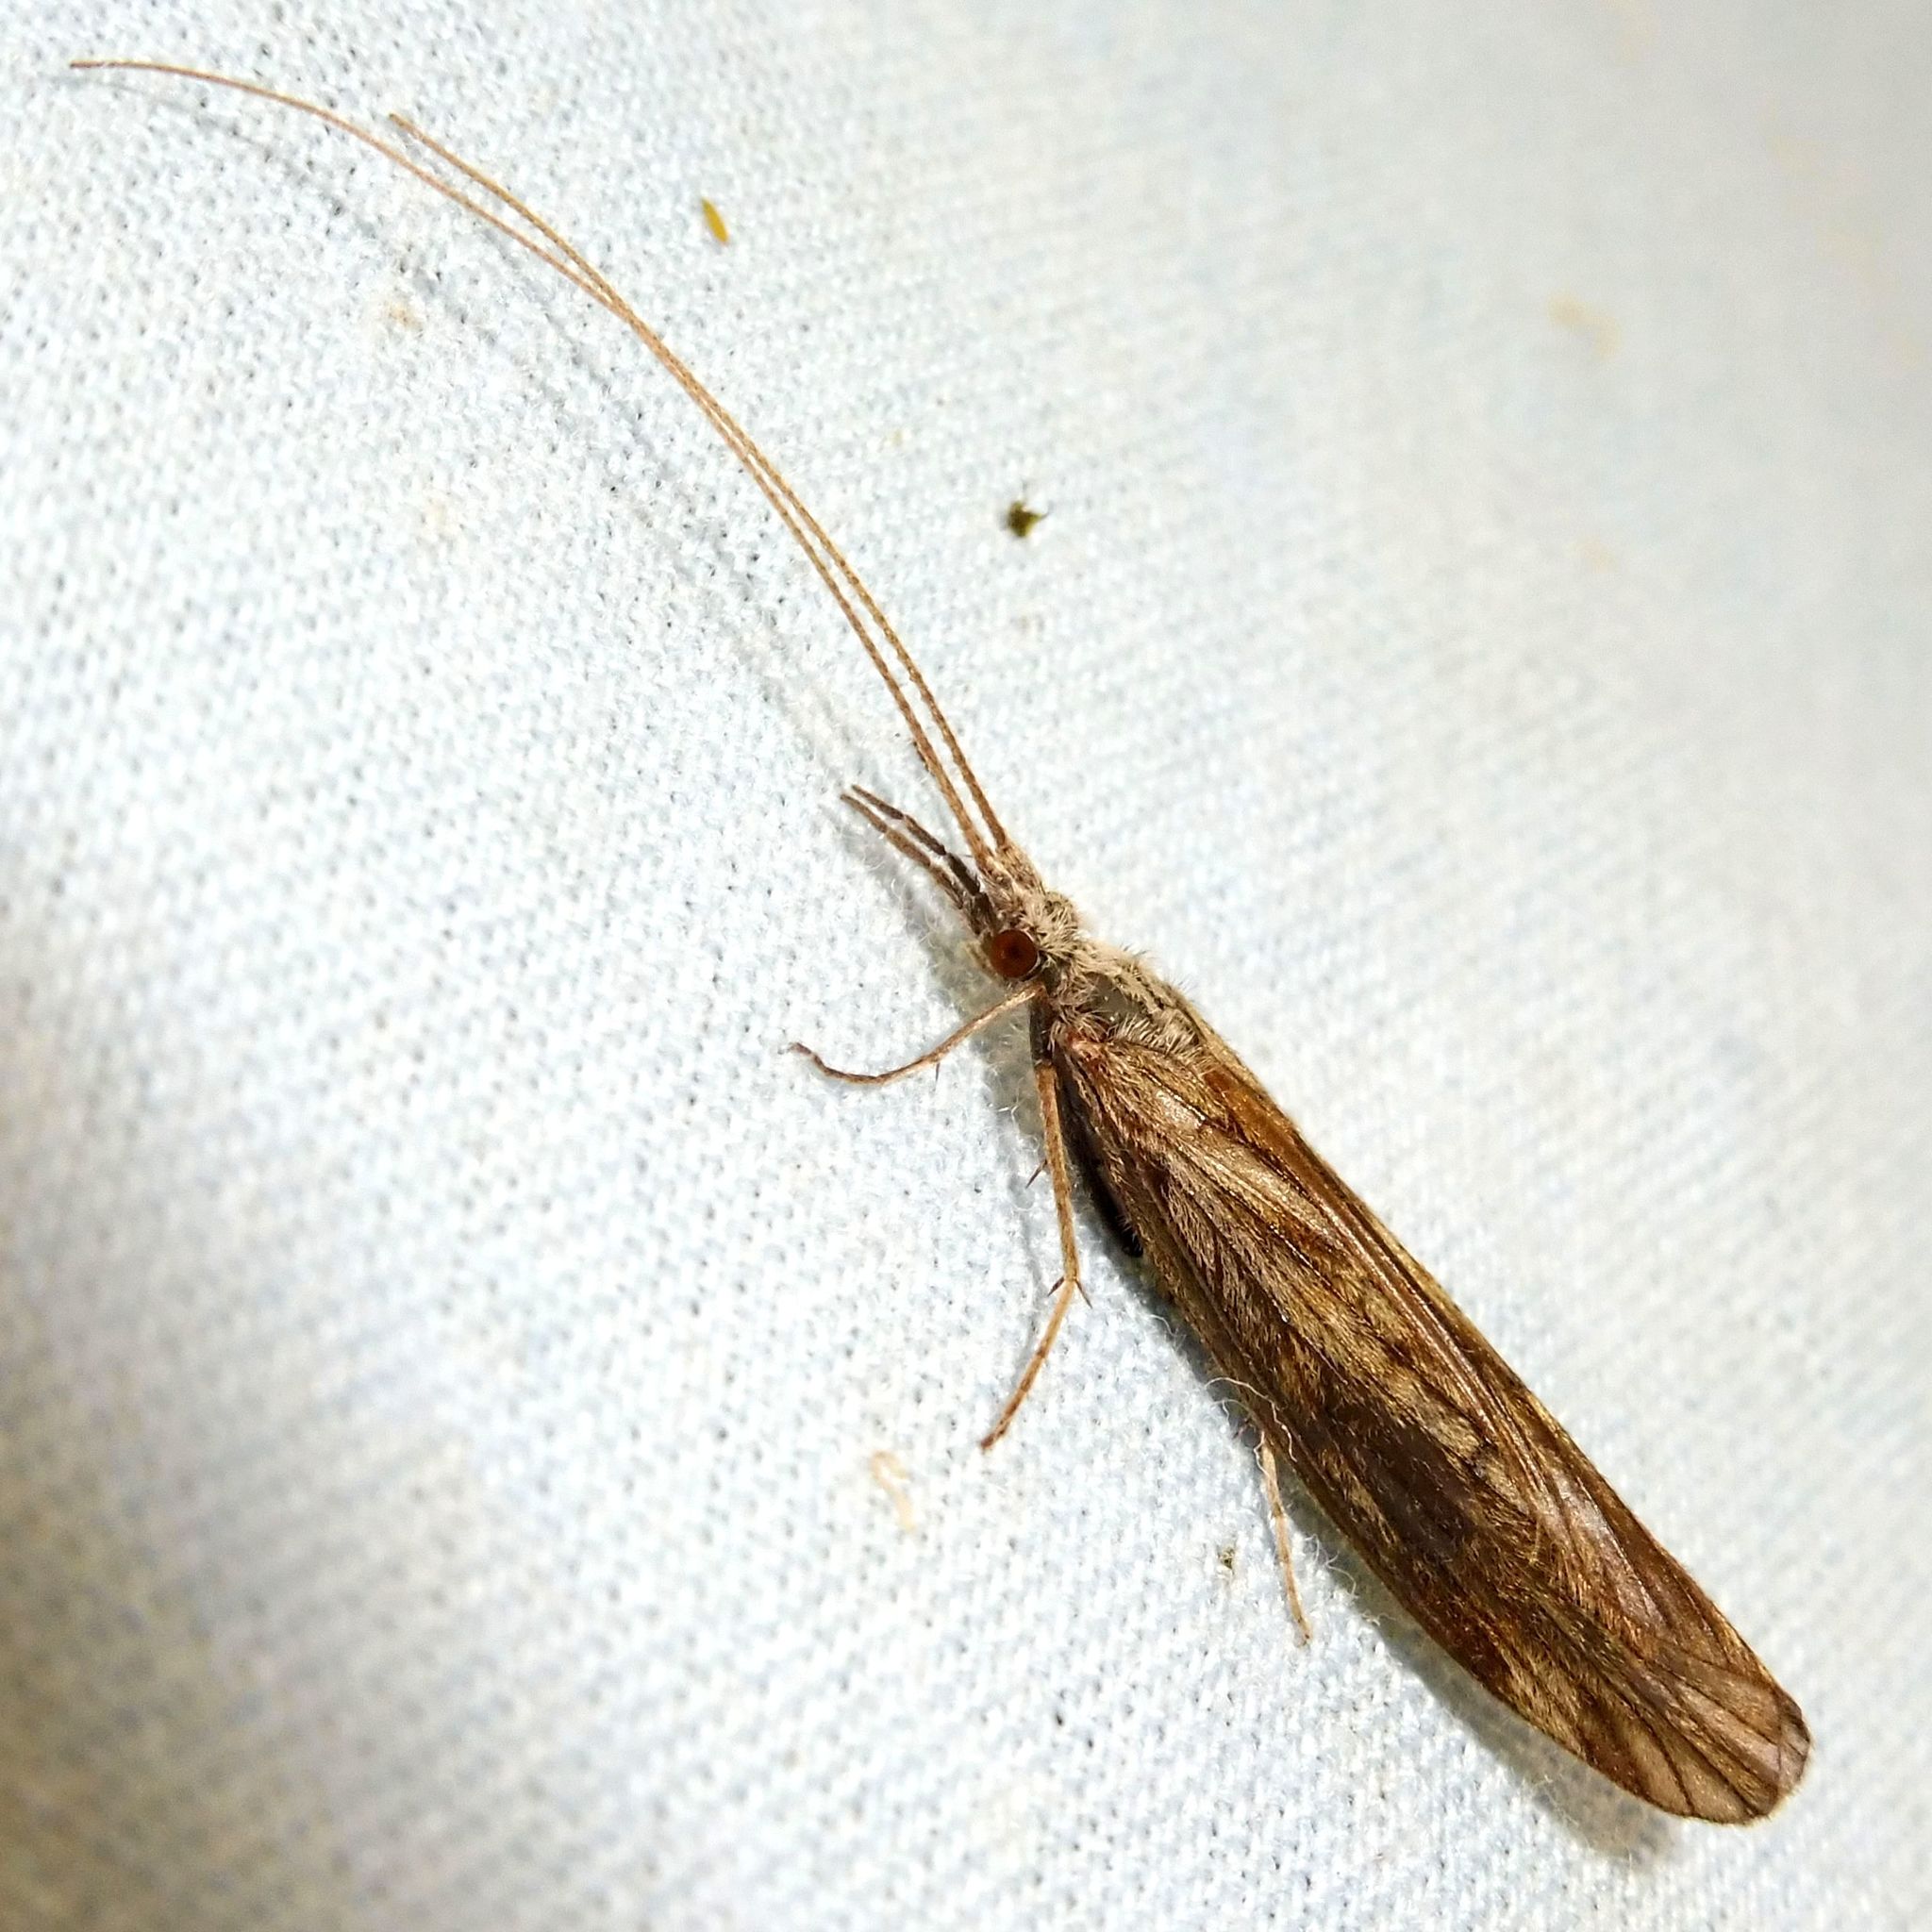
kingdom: Animalia
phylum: Arthropoda
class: Insecta
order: Trichoptera
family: Odontoceridae
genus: Odontocerum
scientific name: Odontocerum albicorne
